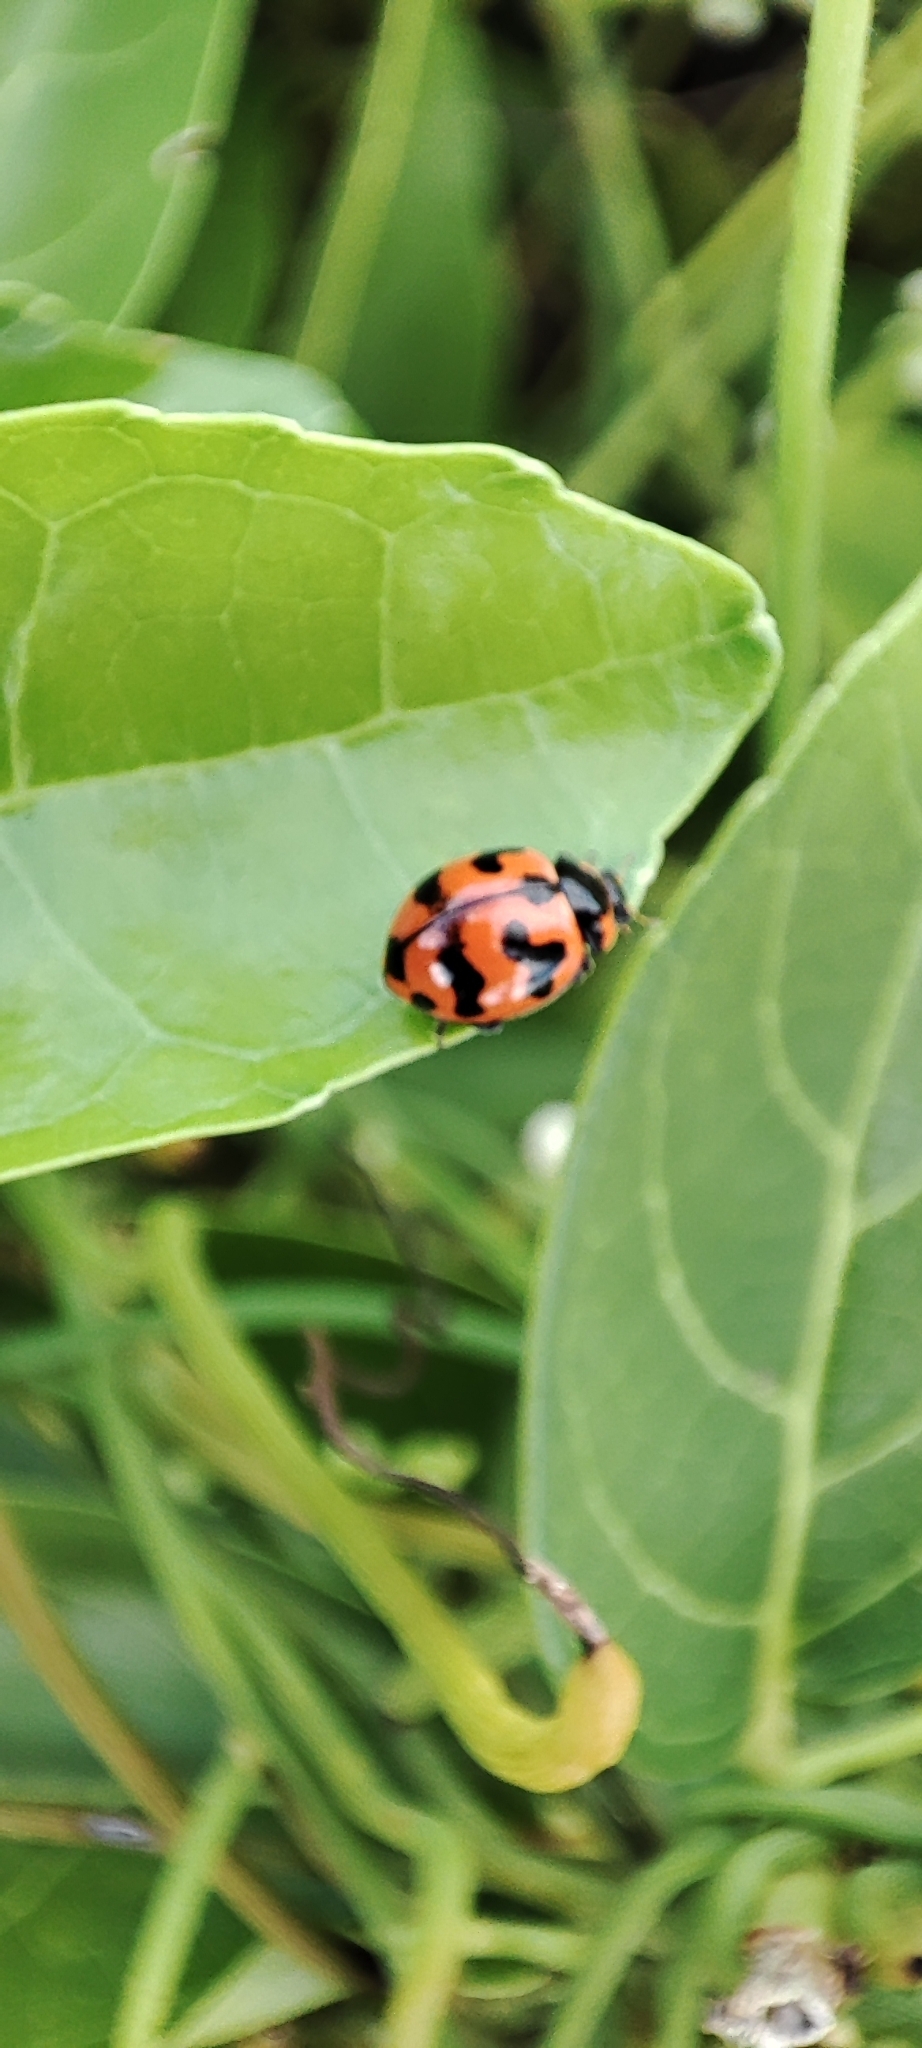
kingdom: Animalia
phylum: Arthropoda
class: Insecta
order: Coleoptera
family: Coccinellidae
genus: Coccinella
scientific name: Coccinella transversalis
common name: Transverse lady beetle
